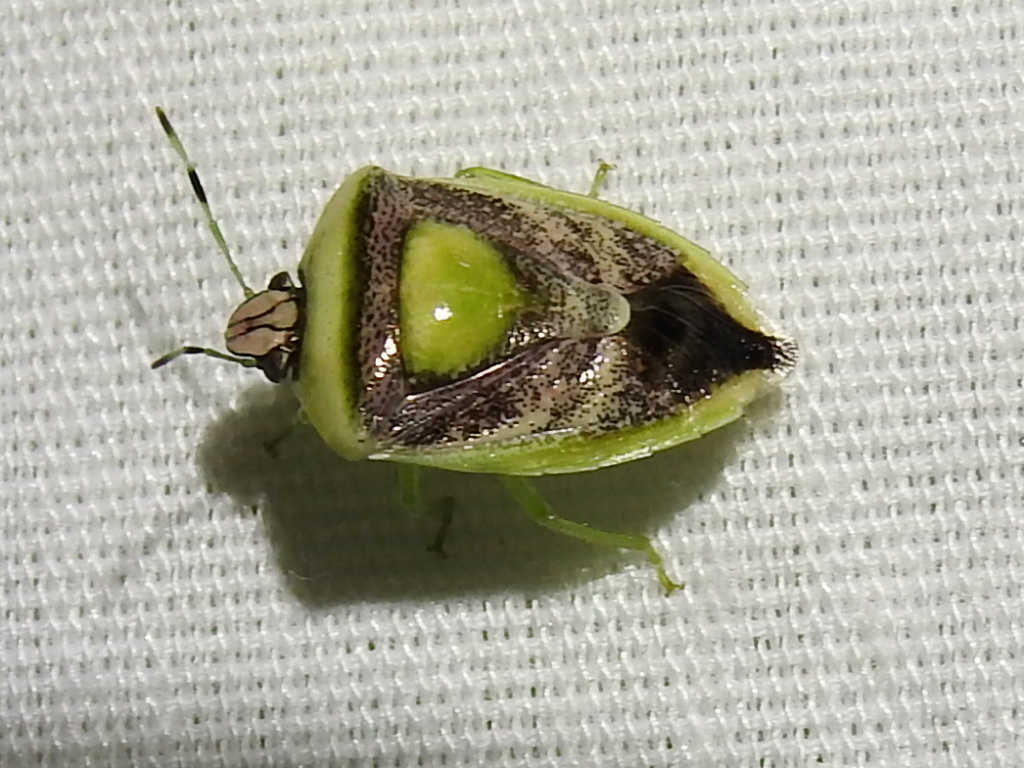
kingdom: Animalia
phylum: Arthropoda
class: Insecta
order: Hemiptera
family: Pentatomidae
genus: Kermana
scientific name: Kermana imbuta
